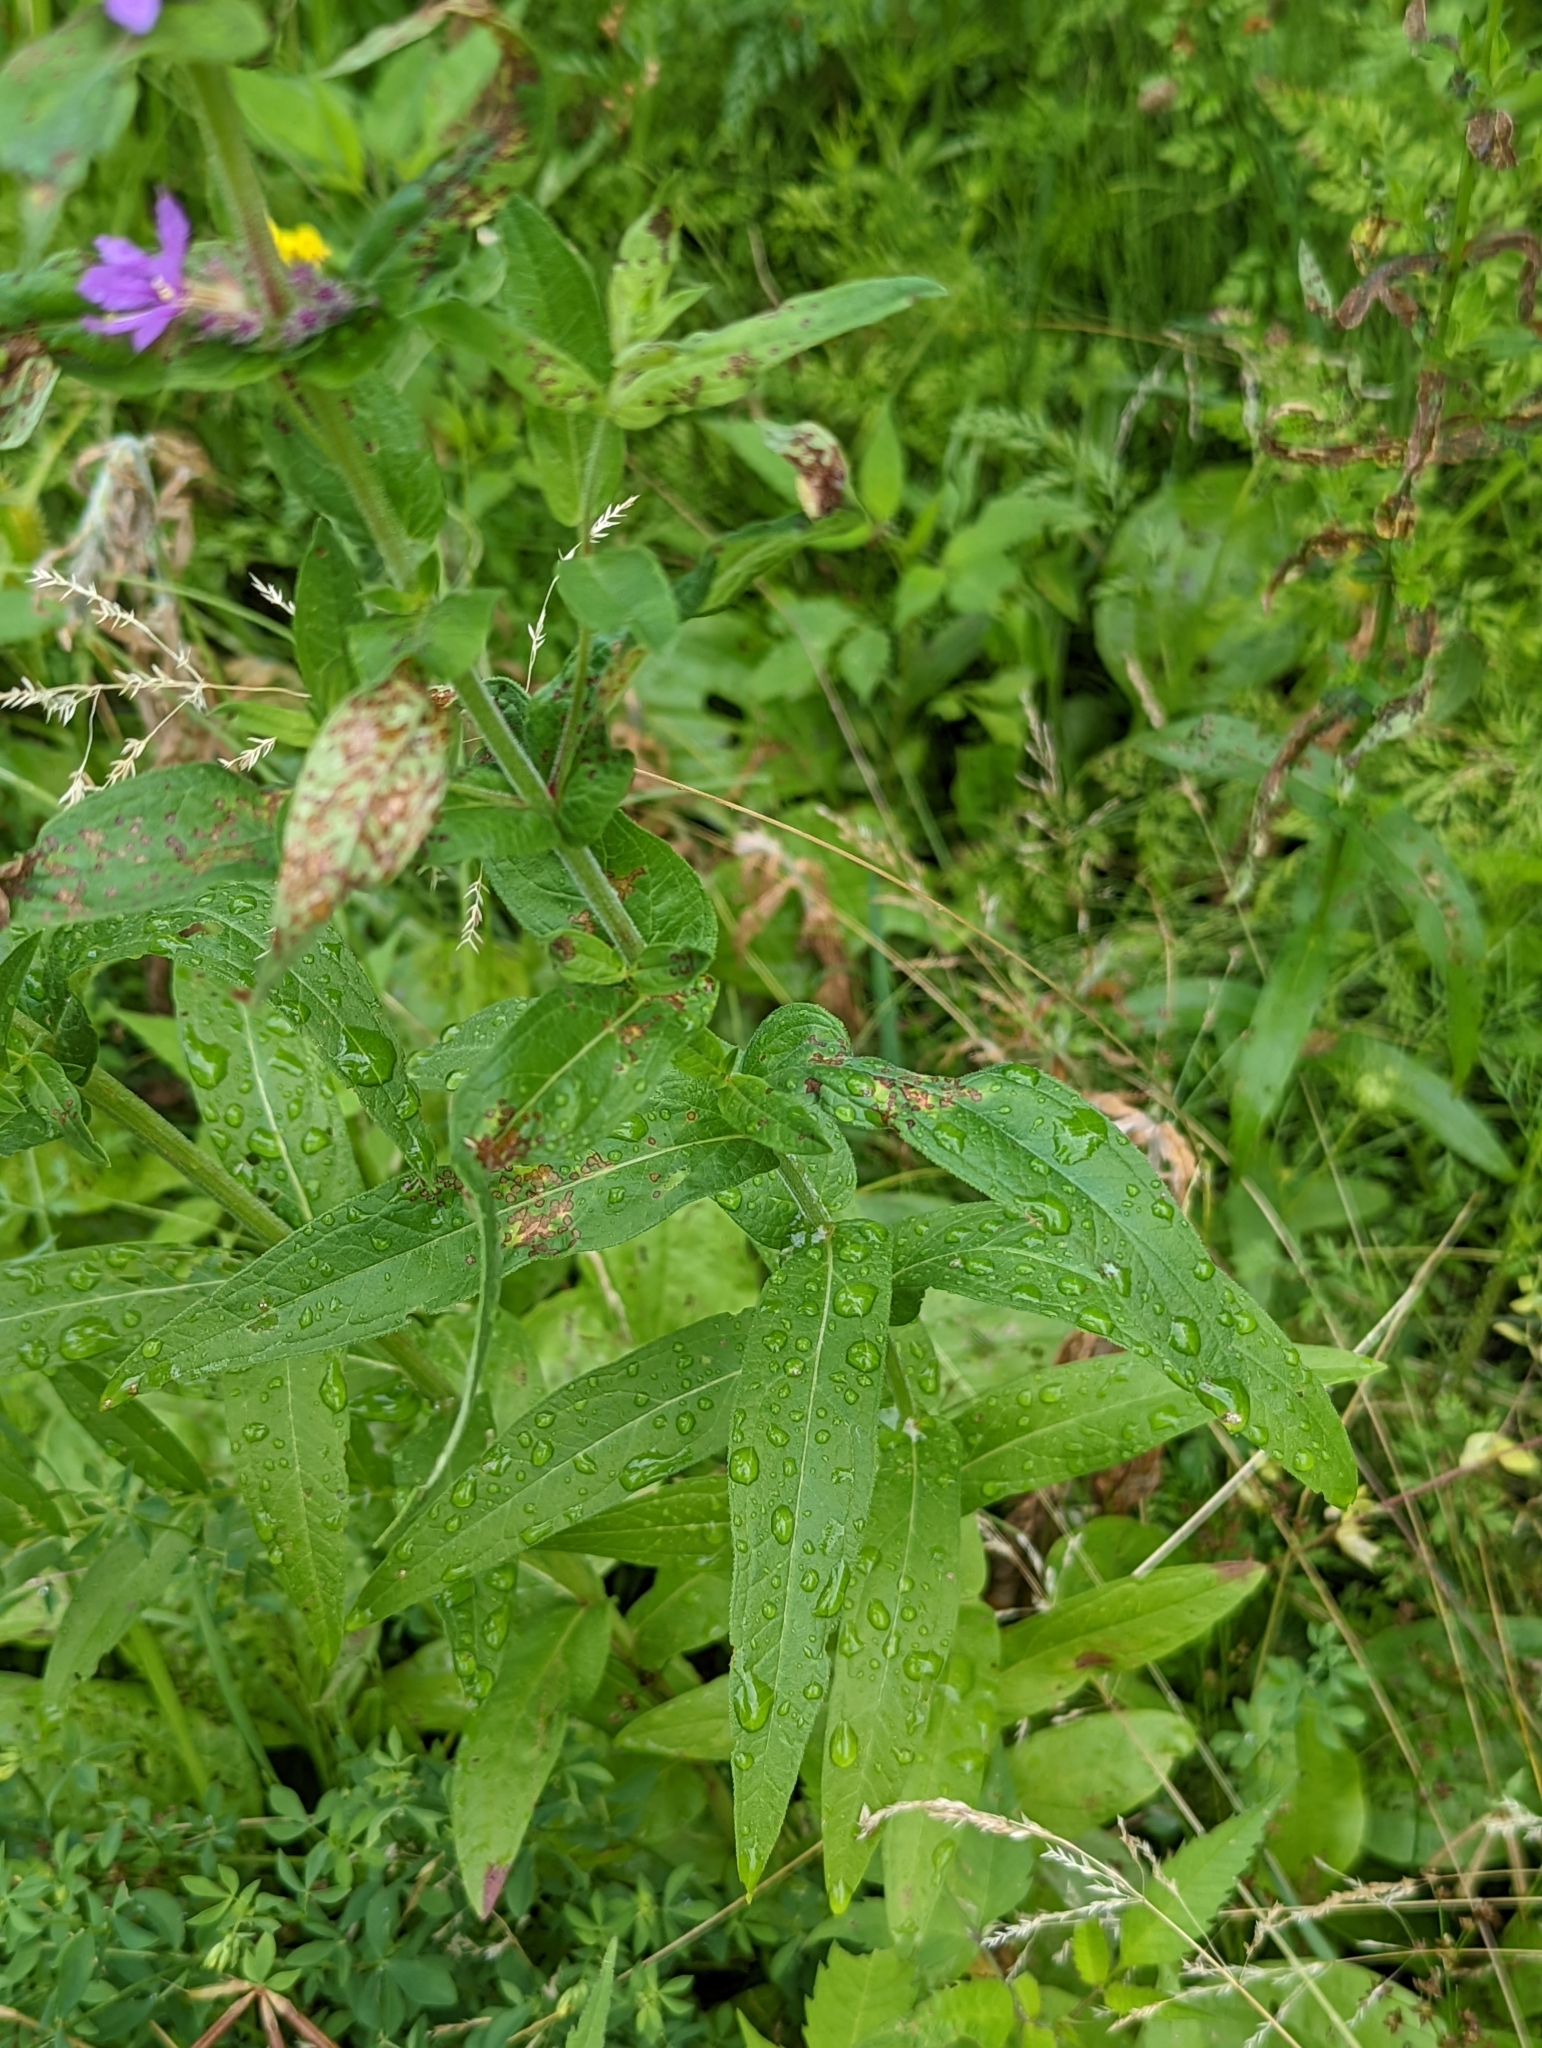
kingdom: Plantae
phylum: Tracheophyta
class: Magnoliopsida
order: Myrtales
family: Lythraceae
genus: Lythrum
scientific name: Lythrum salicaria
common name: Purple loosestrife
